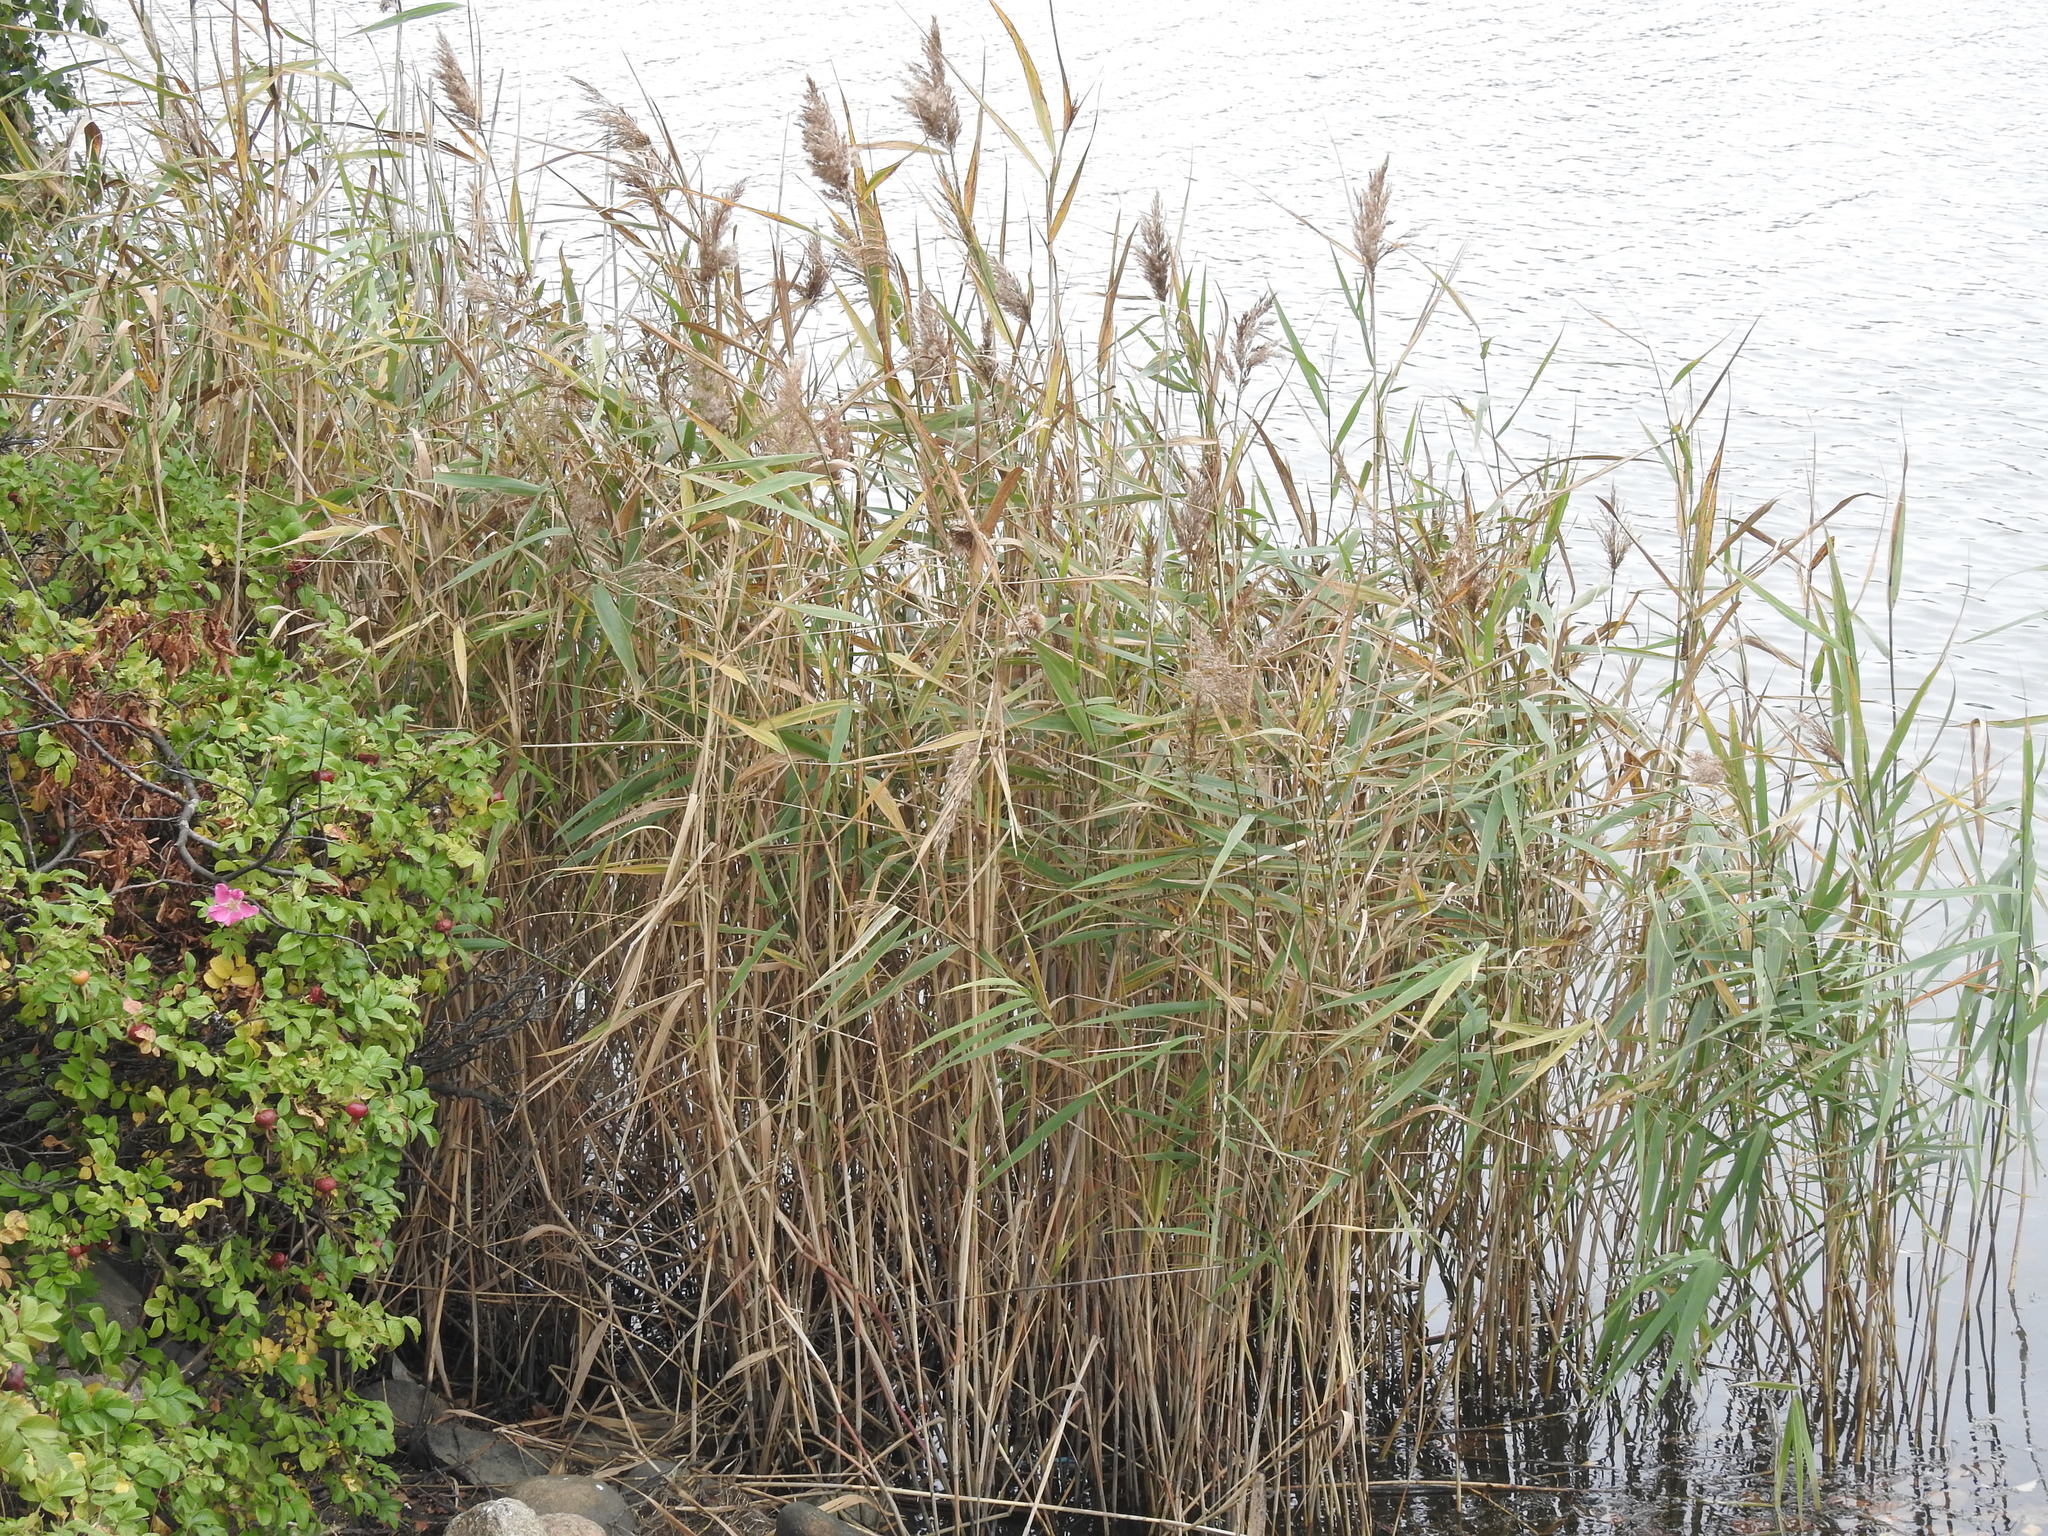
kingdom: Plantae
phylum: Tracheophyta
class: Liliopsida
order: Poales
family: Poaceae
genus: Phragmites
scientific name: Phragmites australis
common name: Common reed
